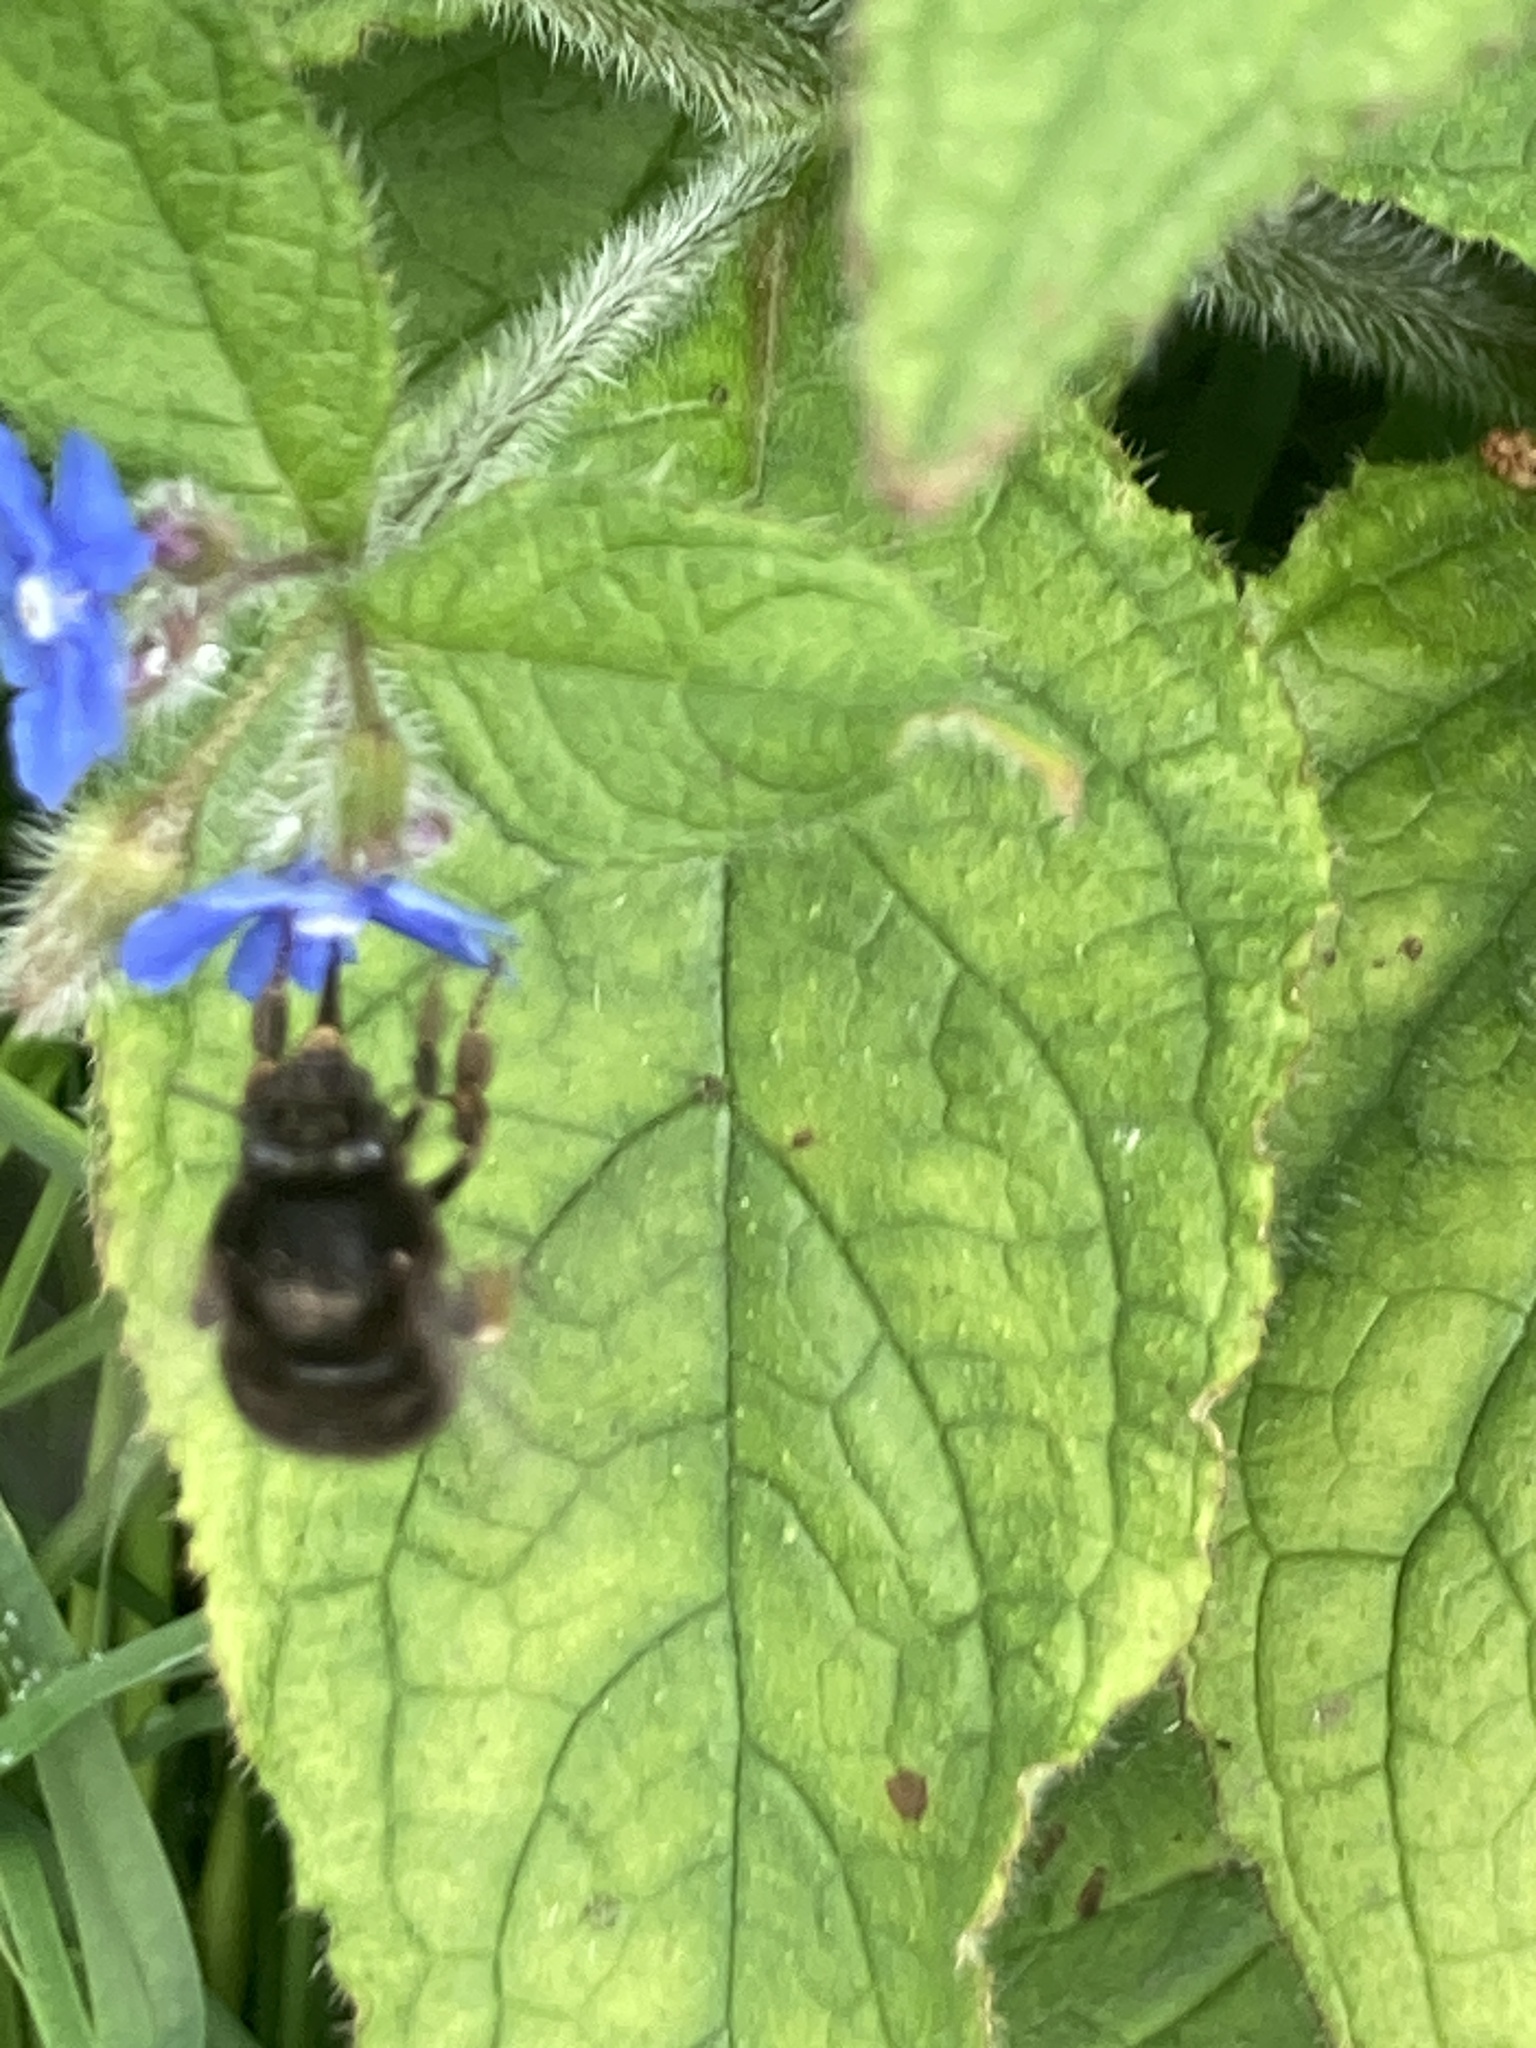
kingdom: Animalia
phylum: Arthropoda
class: Insecta
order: Hymenoptera
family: Apidae
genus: Anthophora
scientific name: Anthophora plumipes
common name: Hairy-footed flower bee
